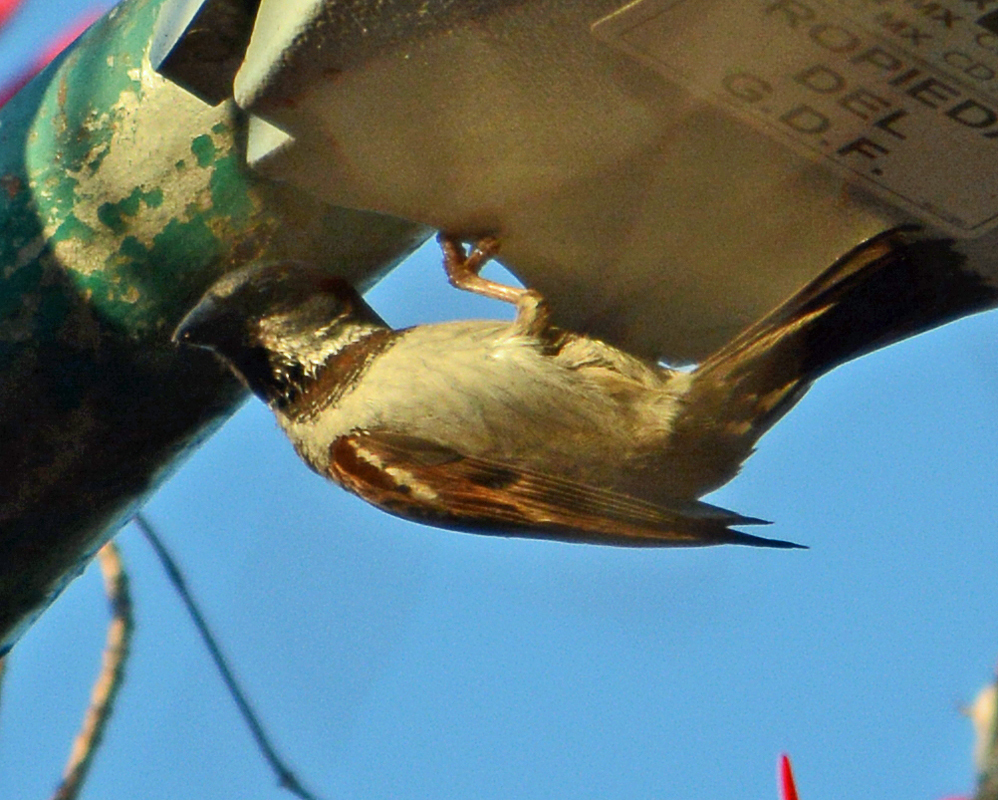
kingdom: Animalia
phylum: Chordata
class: Aves
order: Passeriformes
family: Passeridae
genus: Passer
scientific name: Passer domesticus
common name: House sparrow
